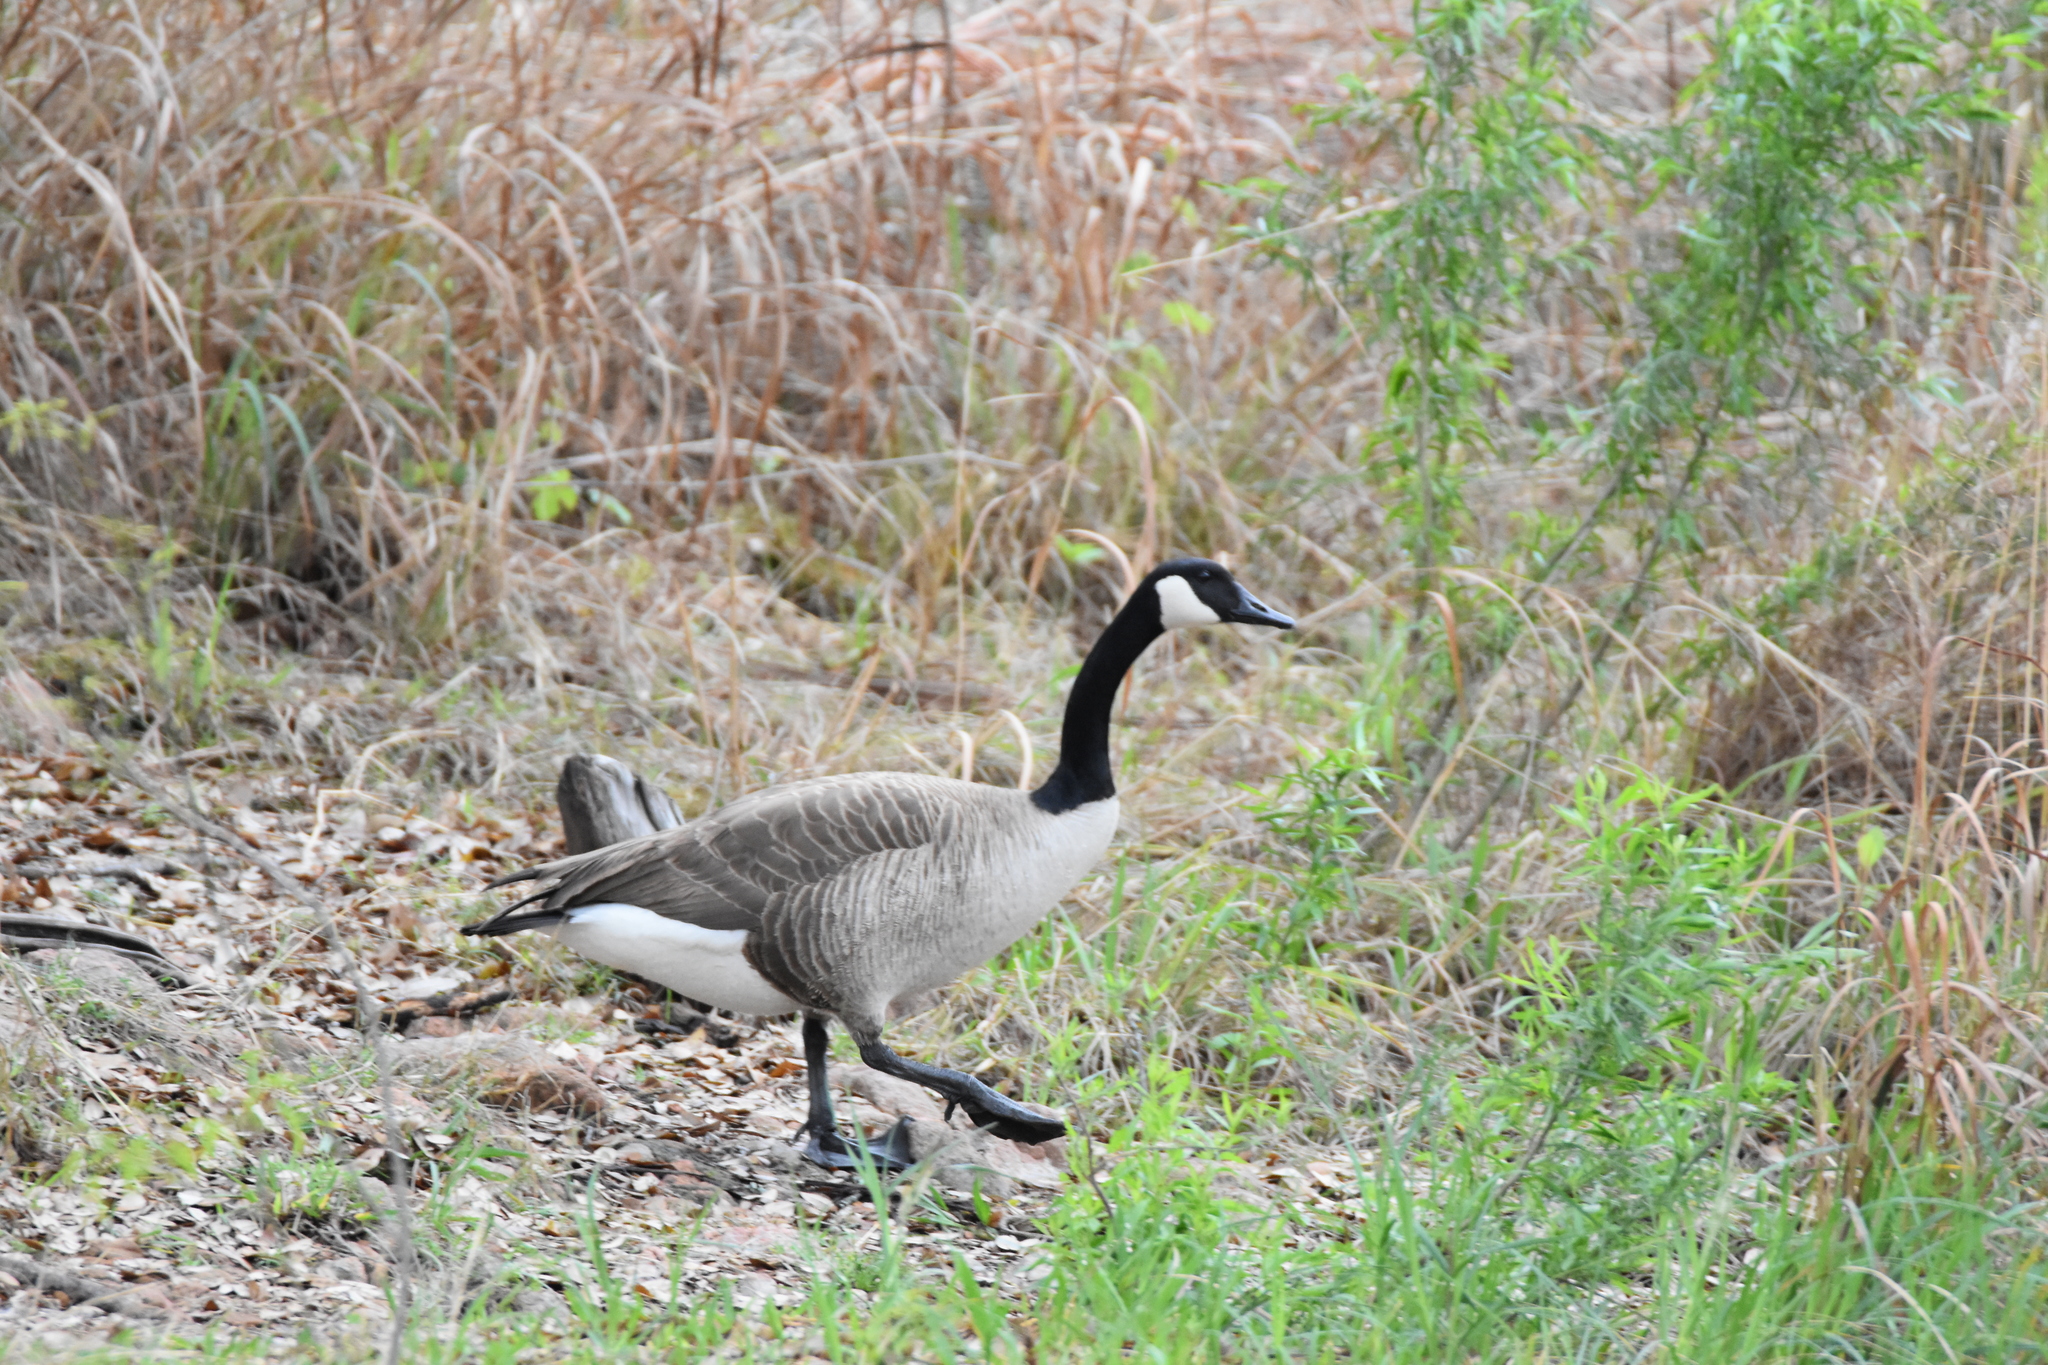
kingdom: Animalia
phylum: Chordata
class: Aves
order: Anseriformes
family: Anatidae
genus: Branta
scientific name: Branta canadensis
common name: Canada goose
